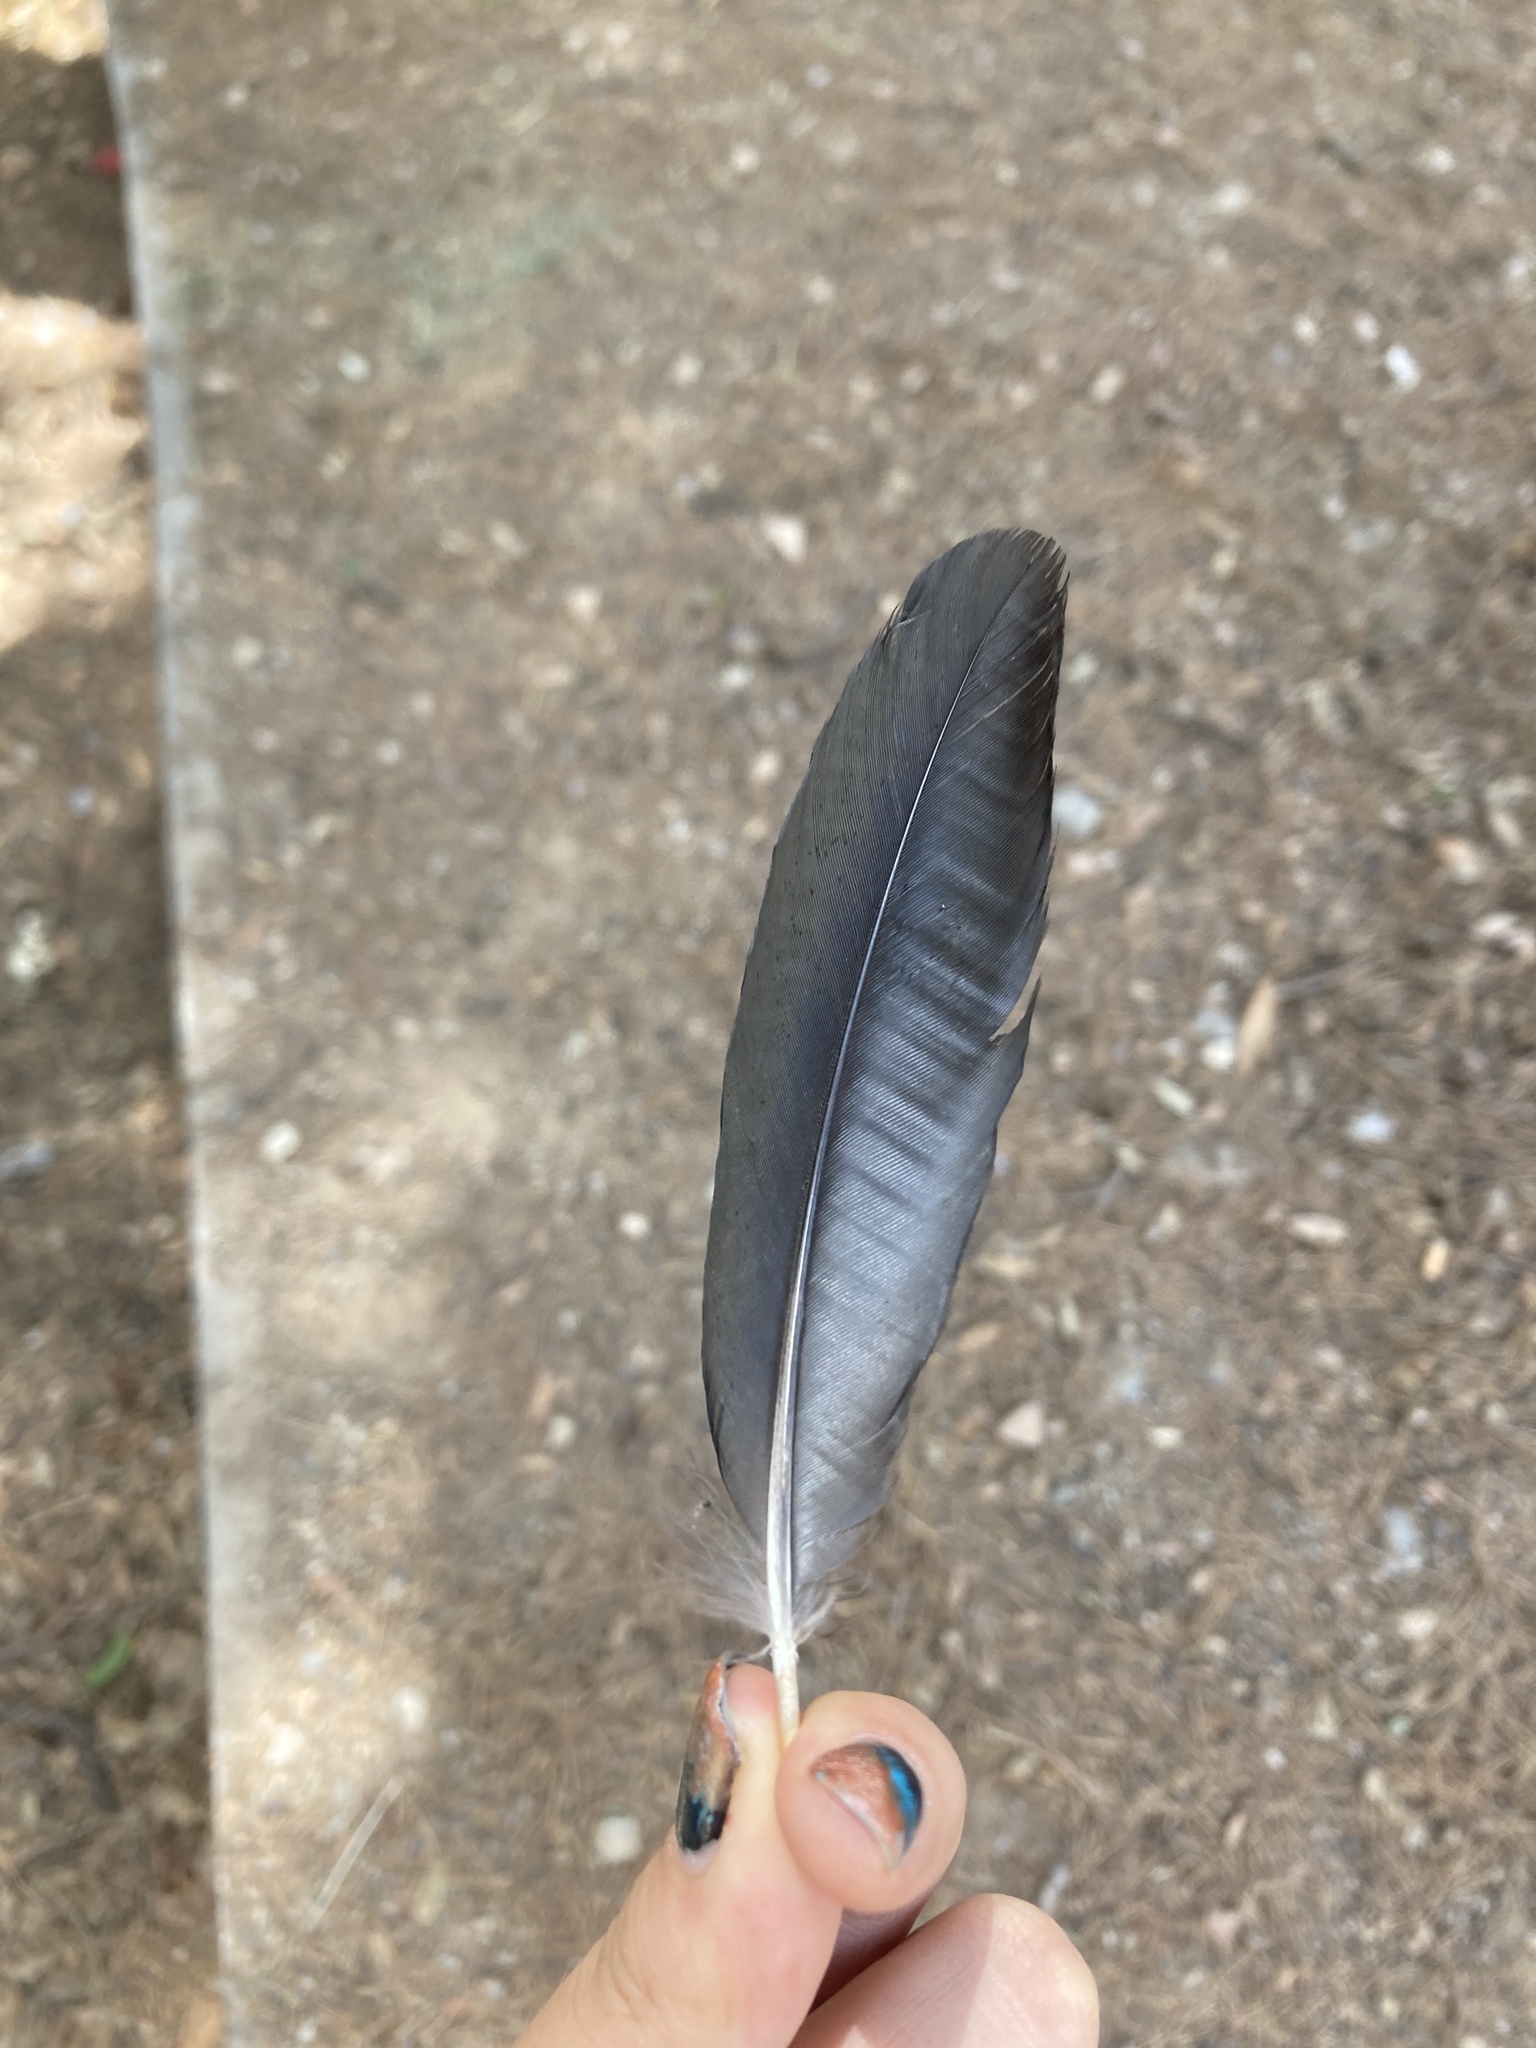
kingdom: Animalia
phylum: Chordata
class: Aves
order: Passeriformes
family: Corvidae
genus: Pica
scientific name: Pica pica
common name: Eurasian magpie
